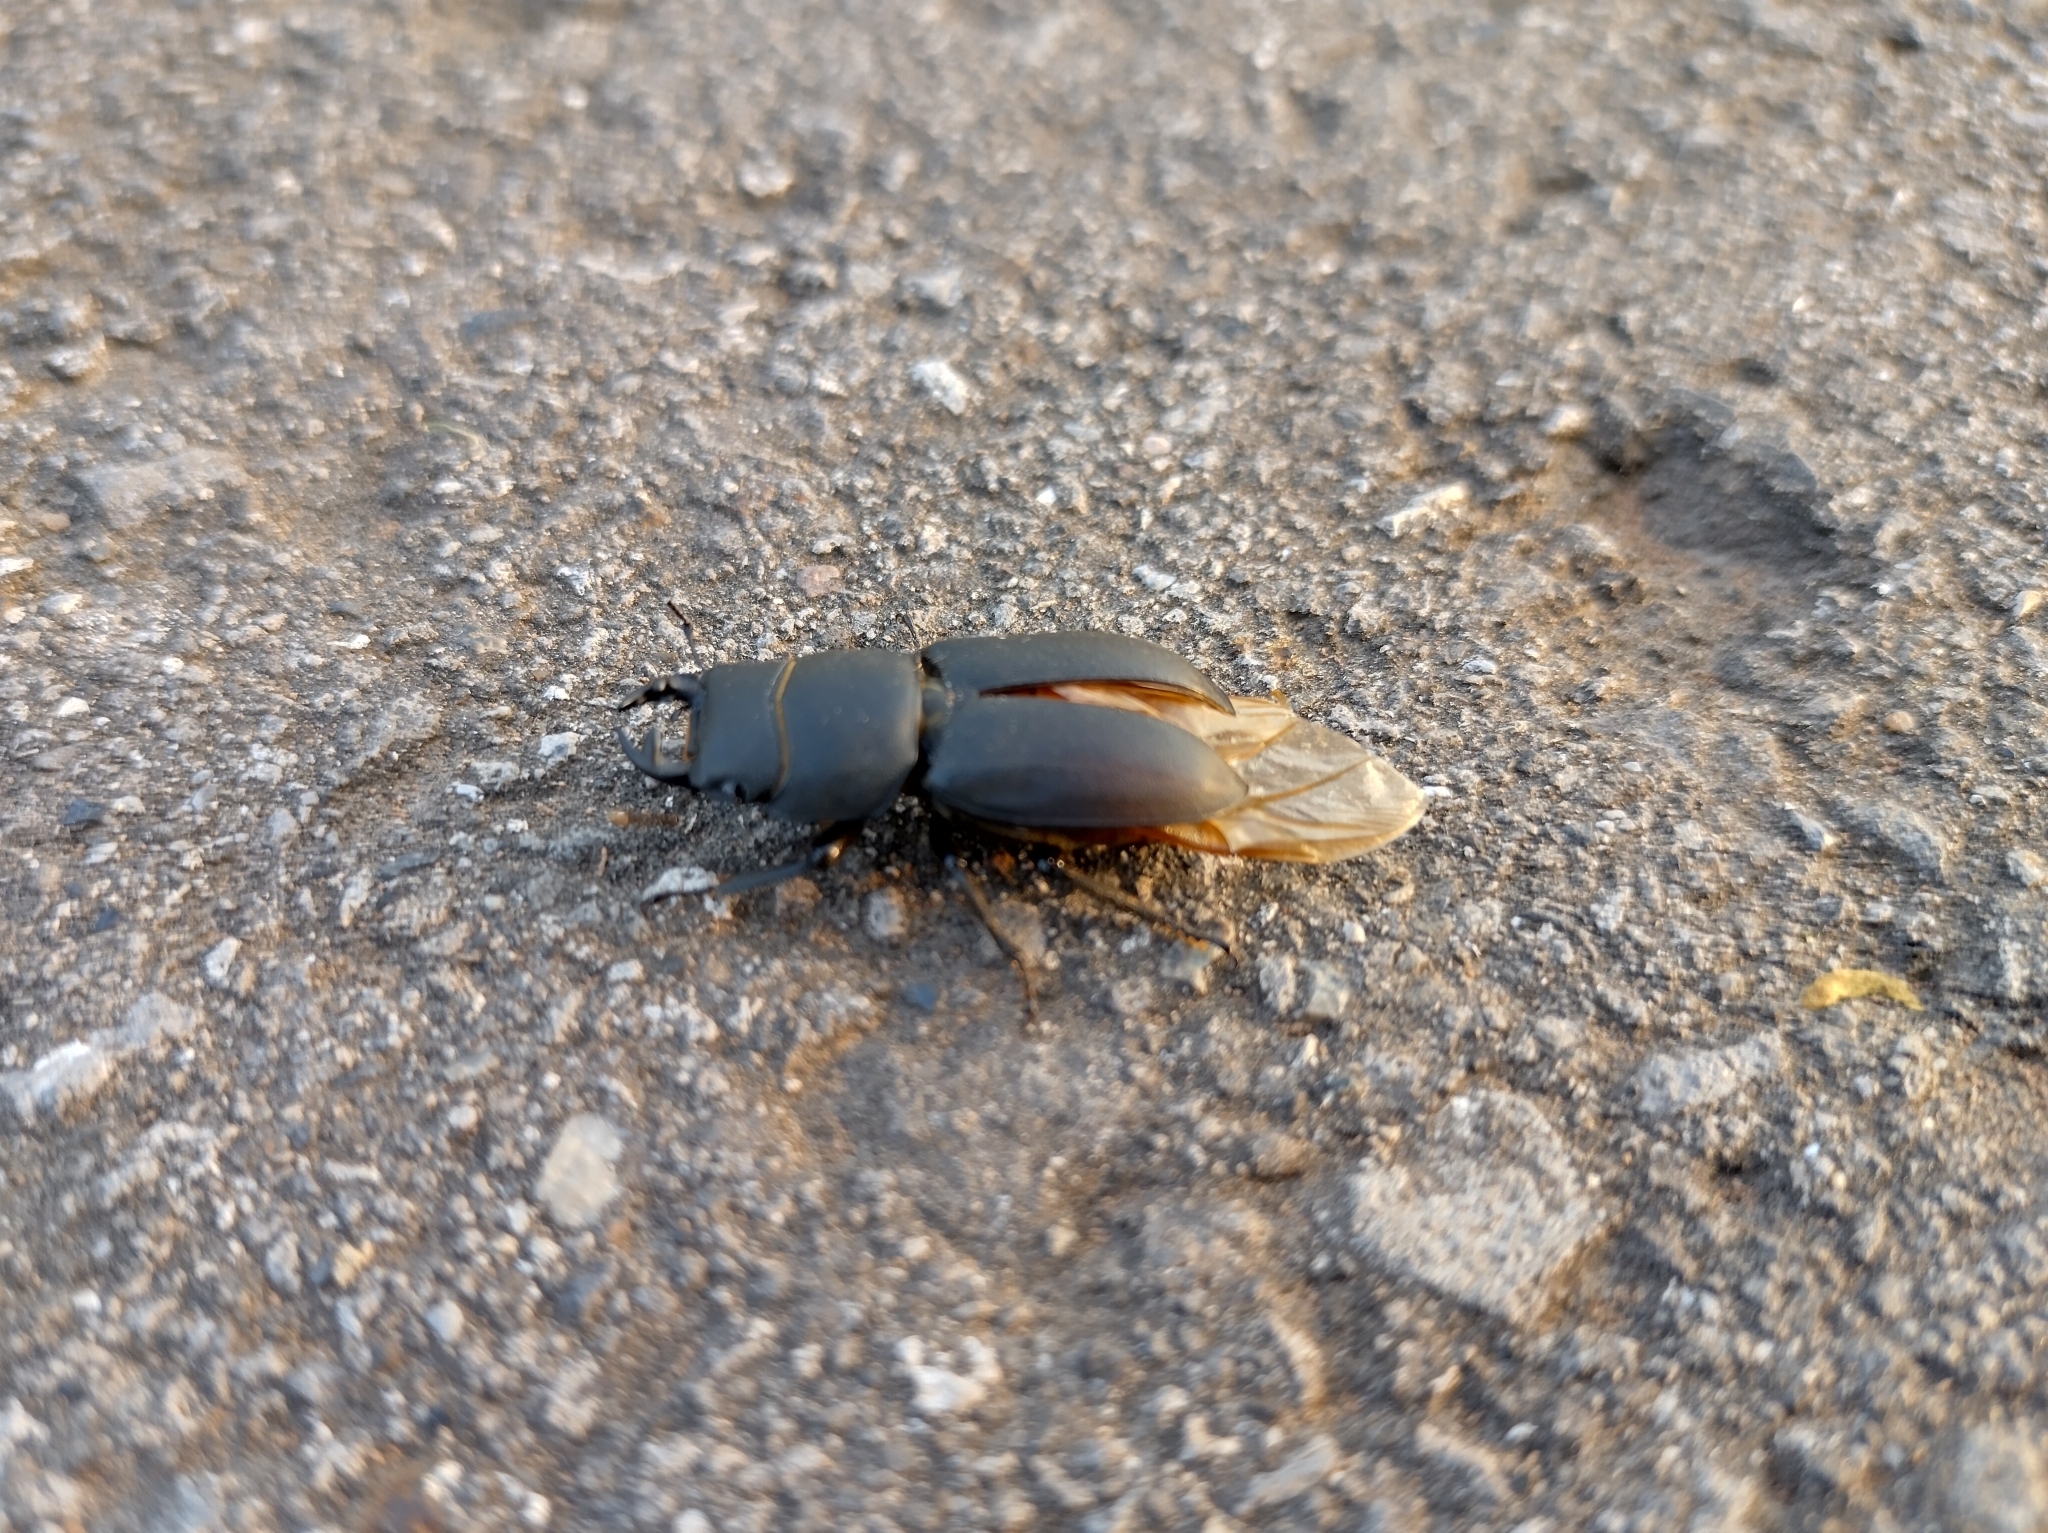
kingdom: Animalia
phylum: Arthropoda
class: Insecta
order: Coleoptera
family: Lucanidae
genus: Dorcus
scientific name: Dorcus parallelipipedus
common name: Lesser stag beetle
